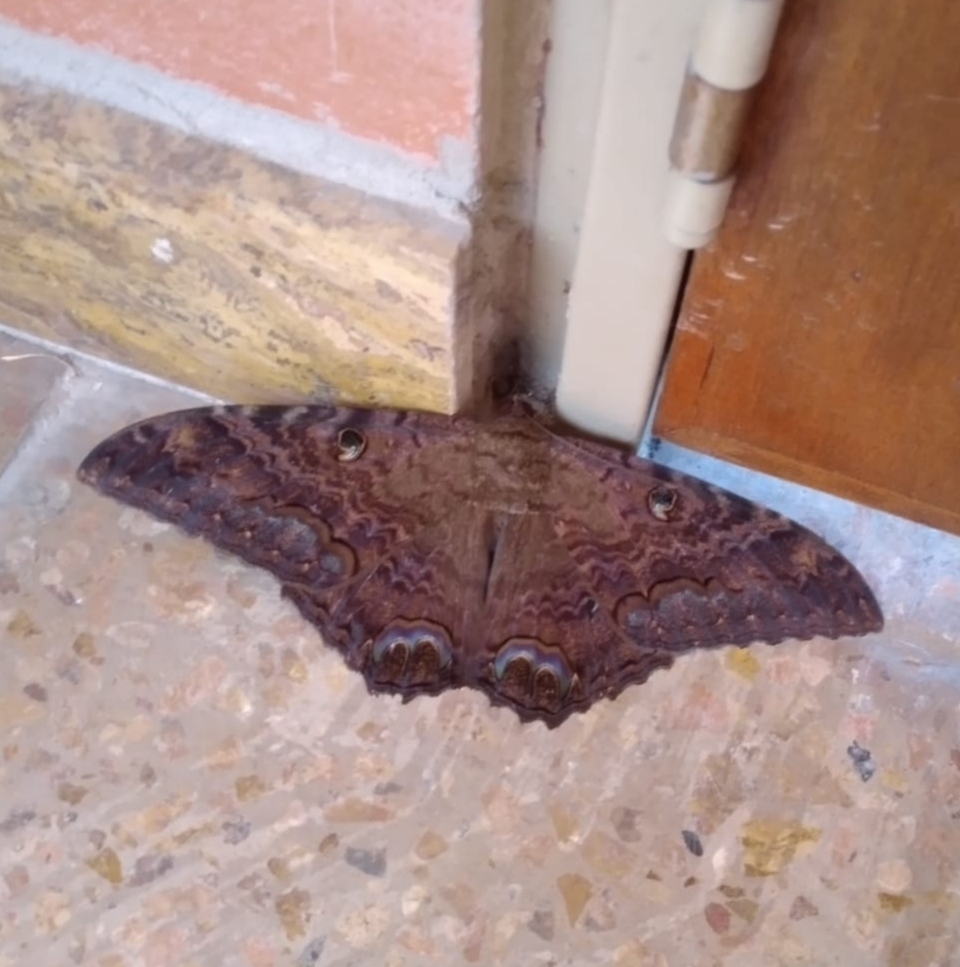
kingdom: Animalia
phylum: Arthropoda
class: Insecta
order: Lepidoptera
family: Erebidae
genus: Ascalapha
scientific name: Ascalapha odorata
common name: Black witch
